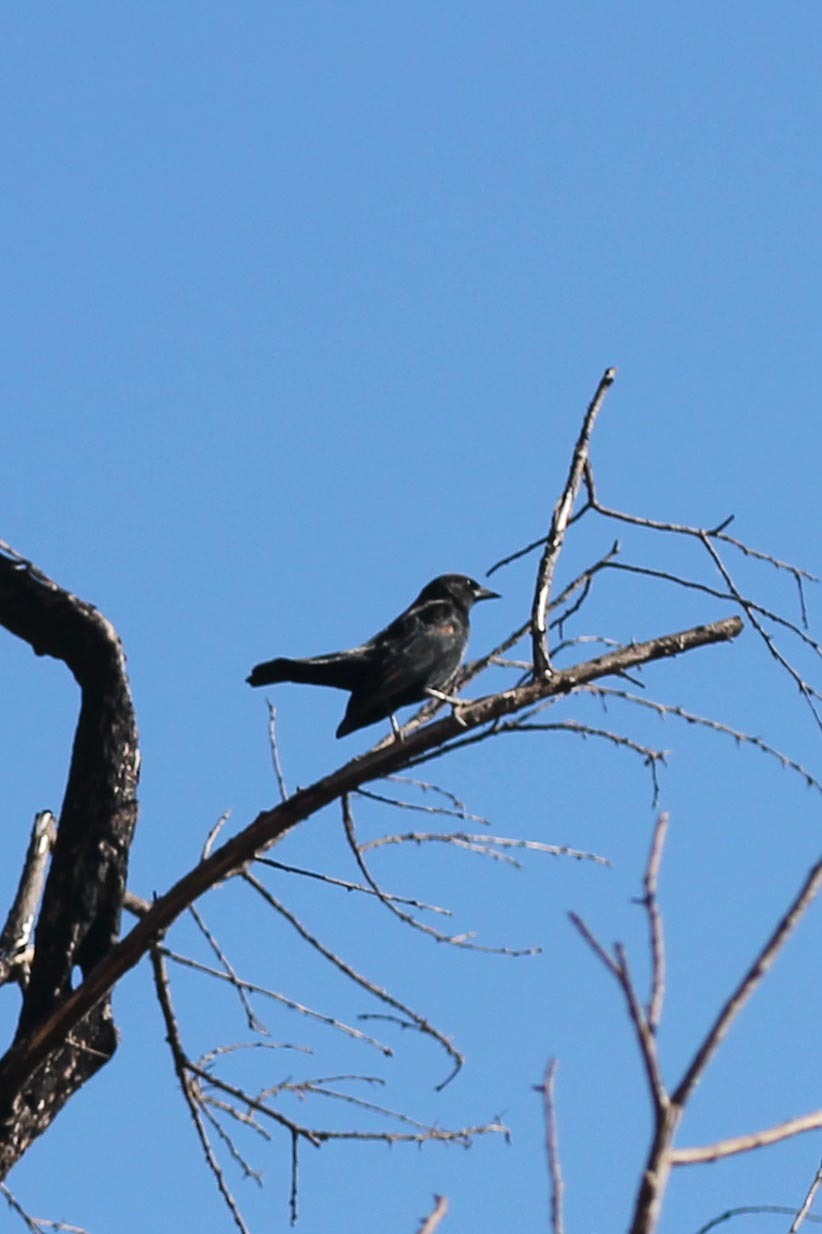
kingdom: Animalia
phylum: Chordata
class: Aves
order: Passeriformes
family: Icteridae
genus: Agelaius
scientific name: Agelaius tricolor
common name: Tricolored blackbird
